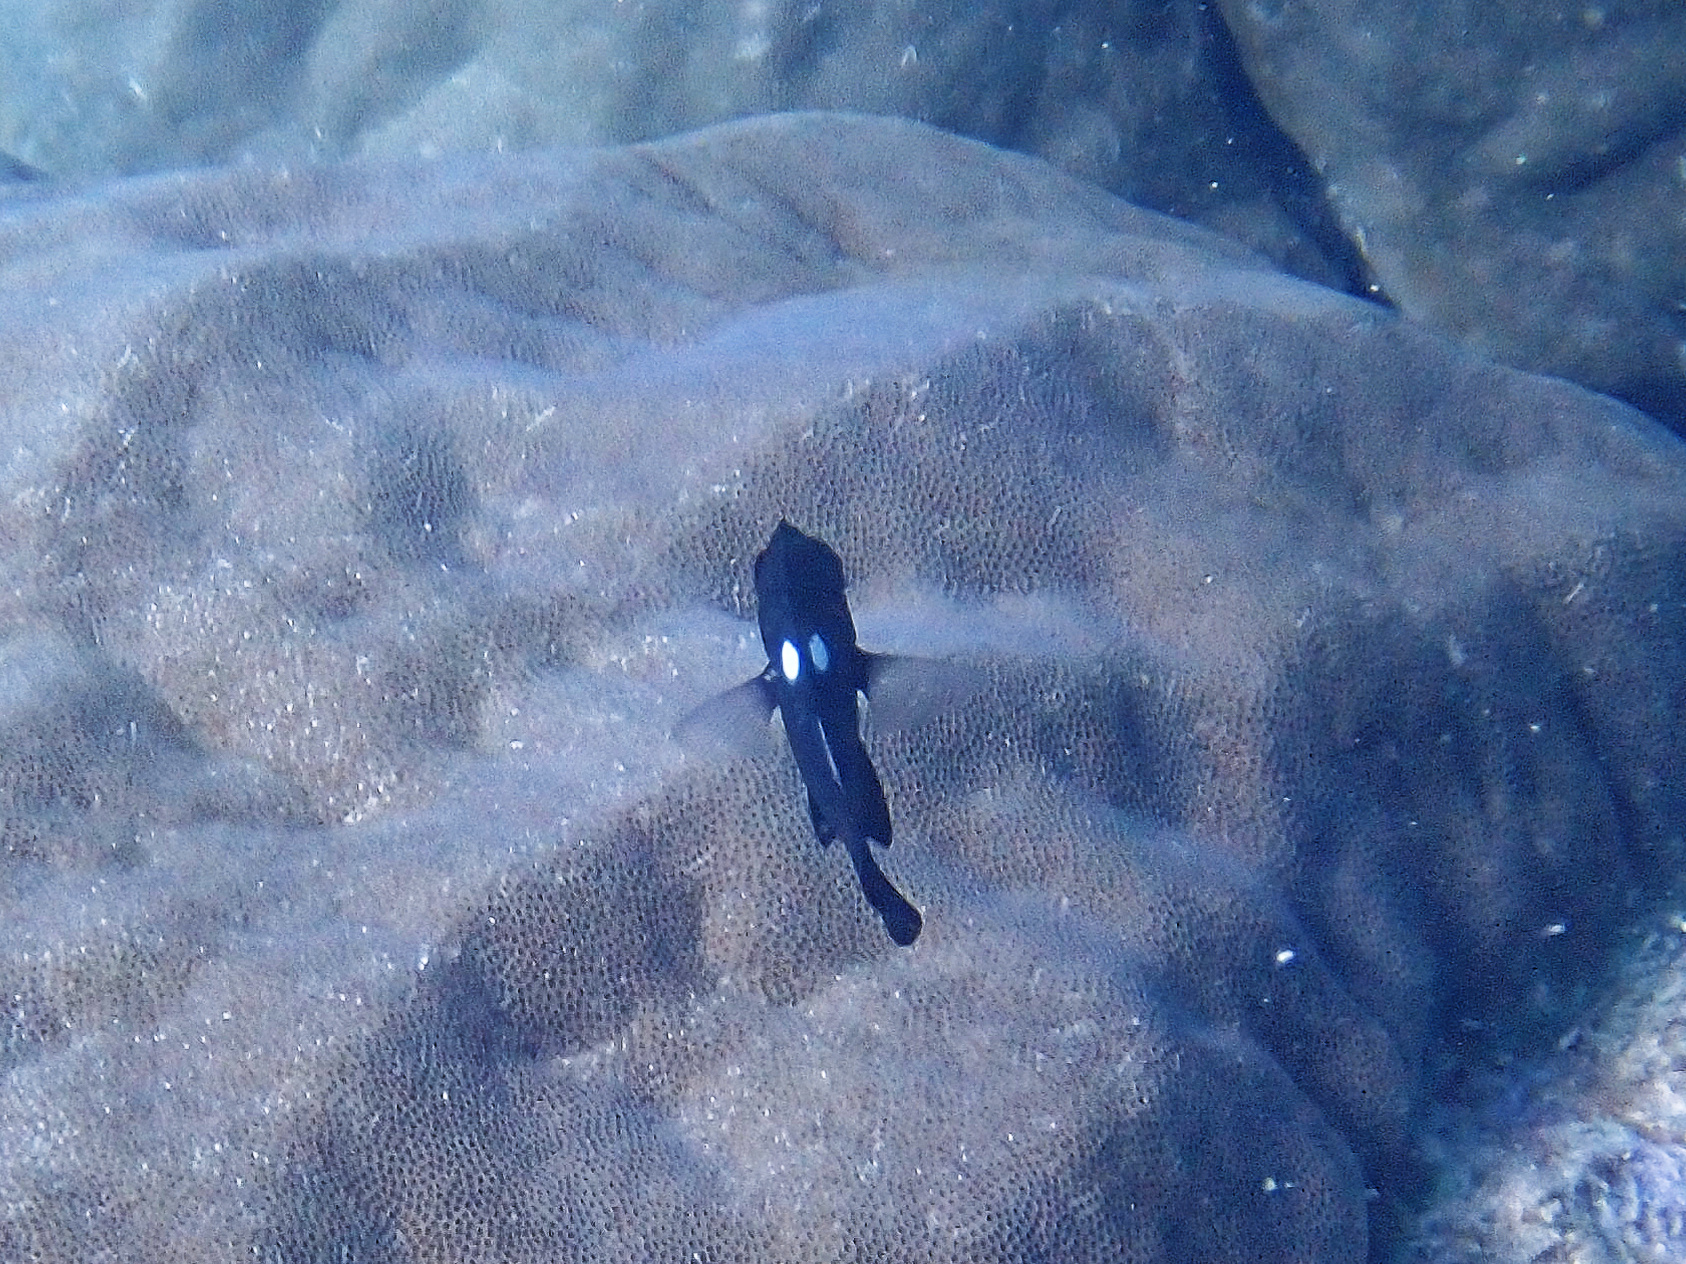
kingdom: Animalia
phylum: Chordata
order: Perciformes
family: Pomacentridae
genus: Dascyllus
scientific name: Dascyllus trimaculatus
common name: Threespot dascyllus
